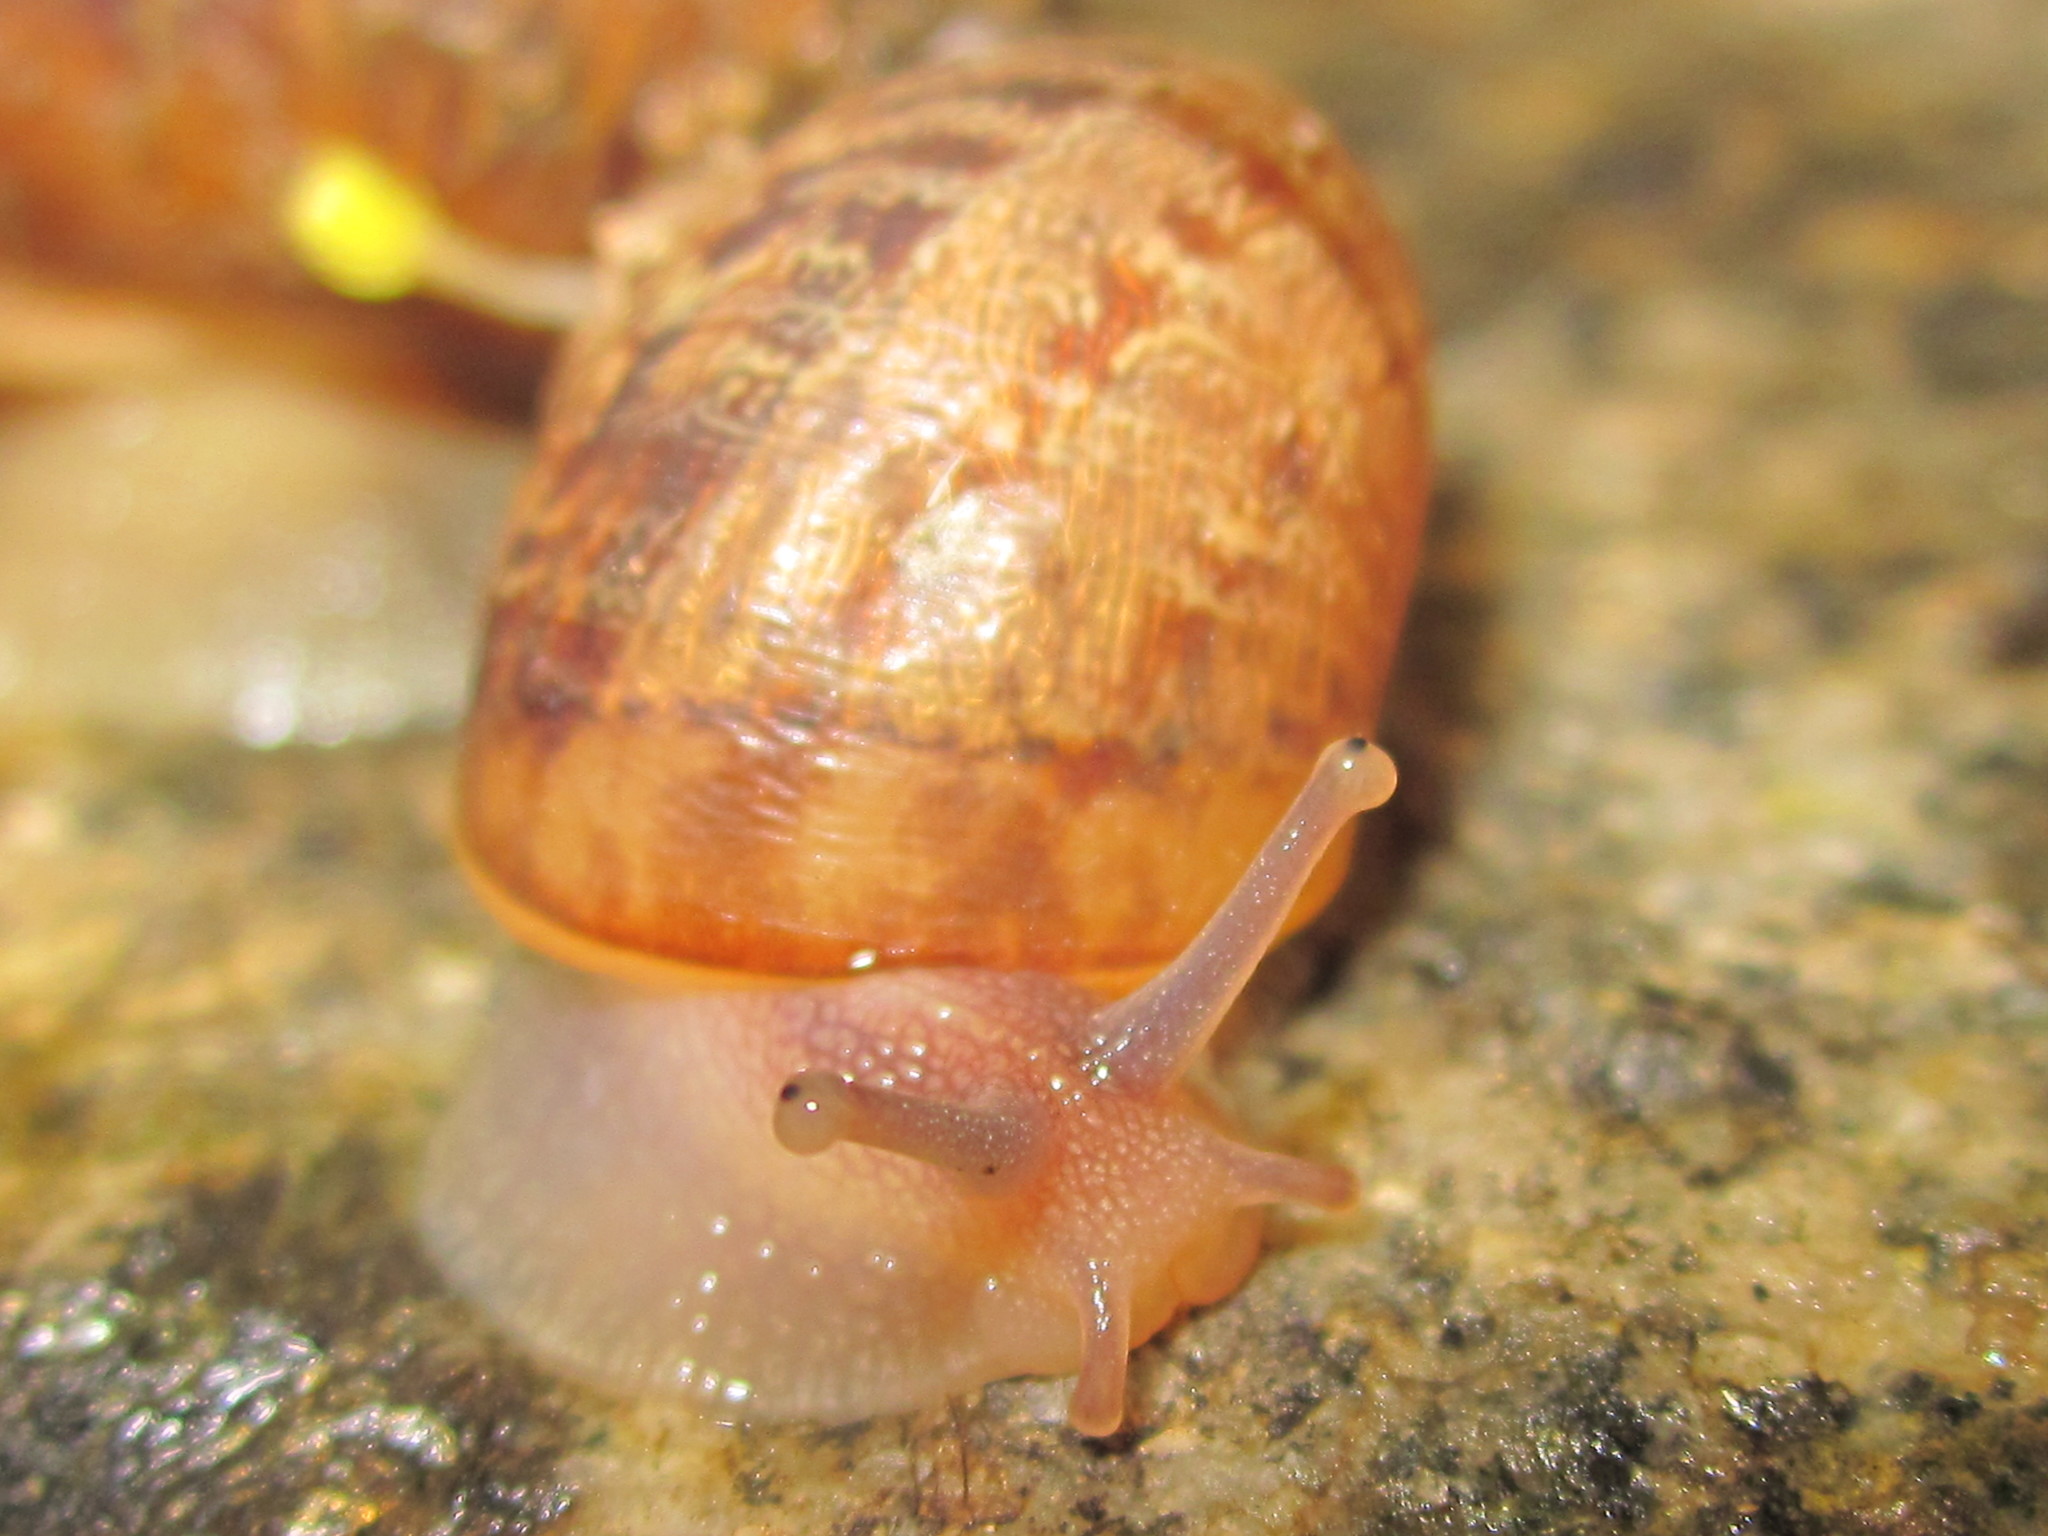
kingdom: Animalia
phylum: Mollusca
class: Gastropoda
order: Stylommatophora
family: Helicidae
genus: Cornu
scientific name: Cornu aspersum
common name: Brown garden snail
